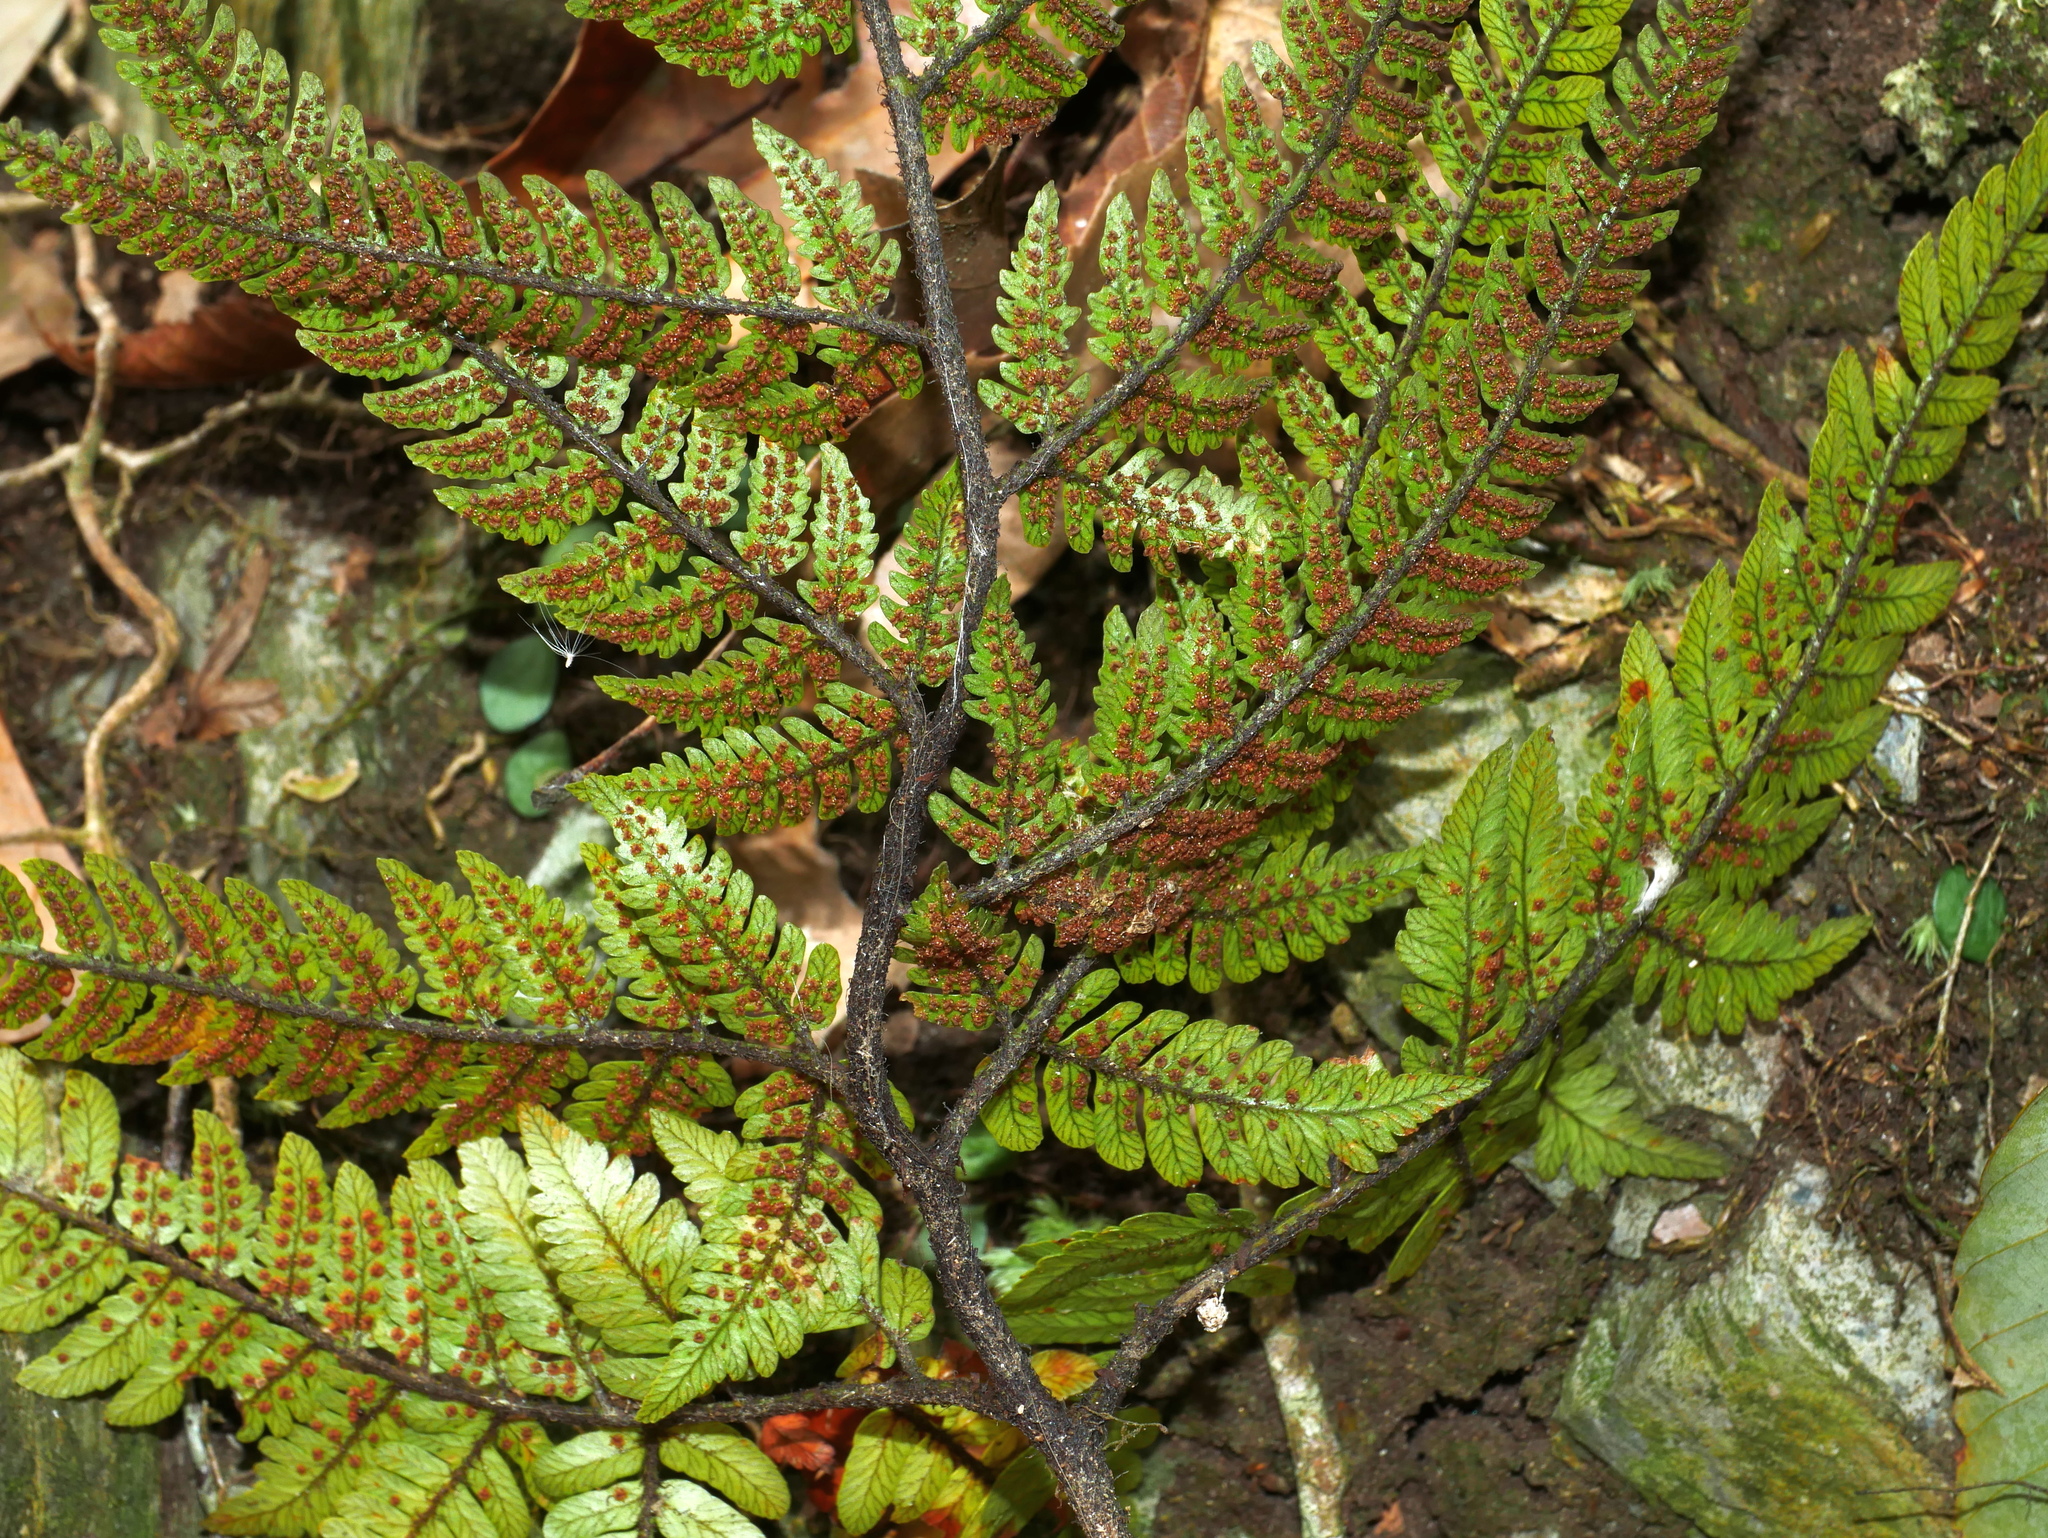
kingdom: Plantae
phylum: Tracheophyta
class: Polypodiopsida
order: Polypodiales
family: Dryopteridaceae
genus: Dryopteris
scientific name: Dryopteris sordidipes
